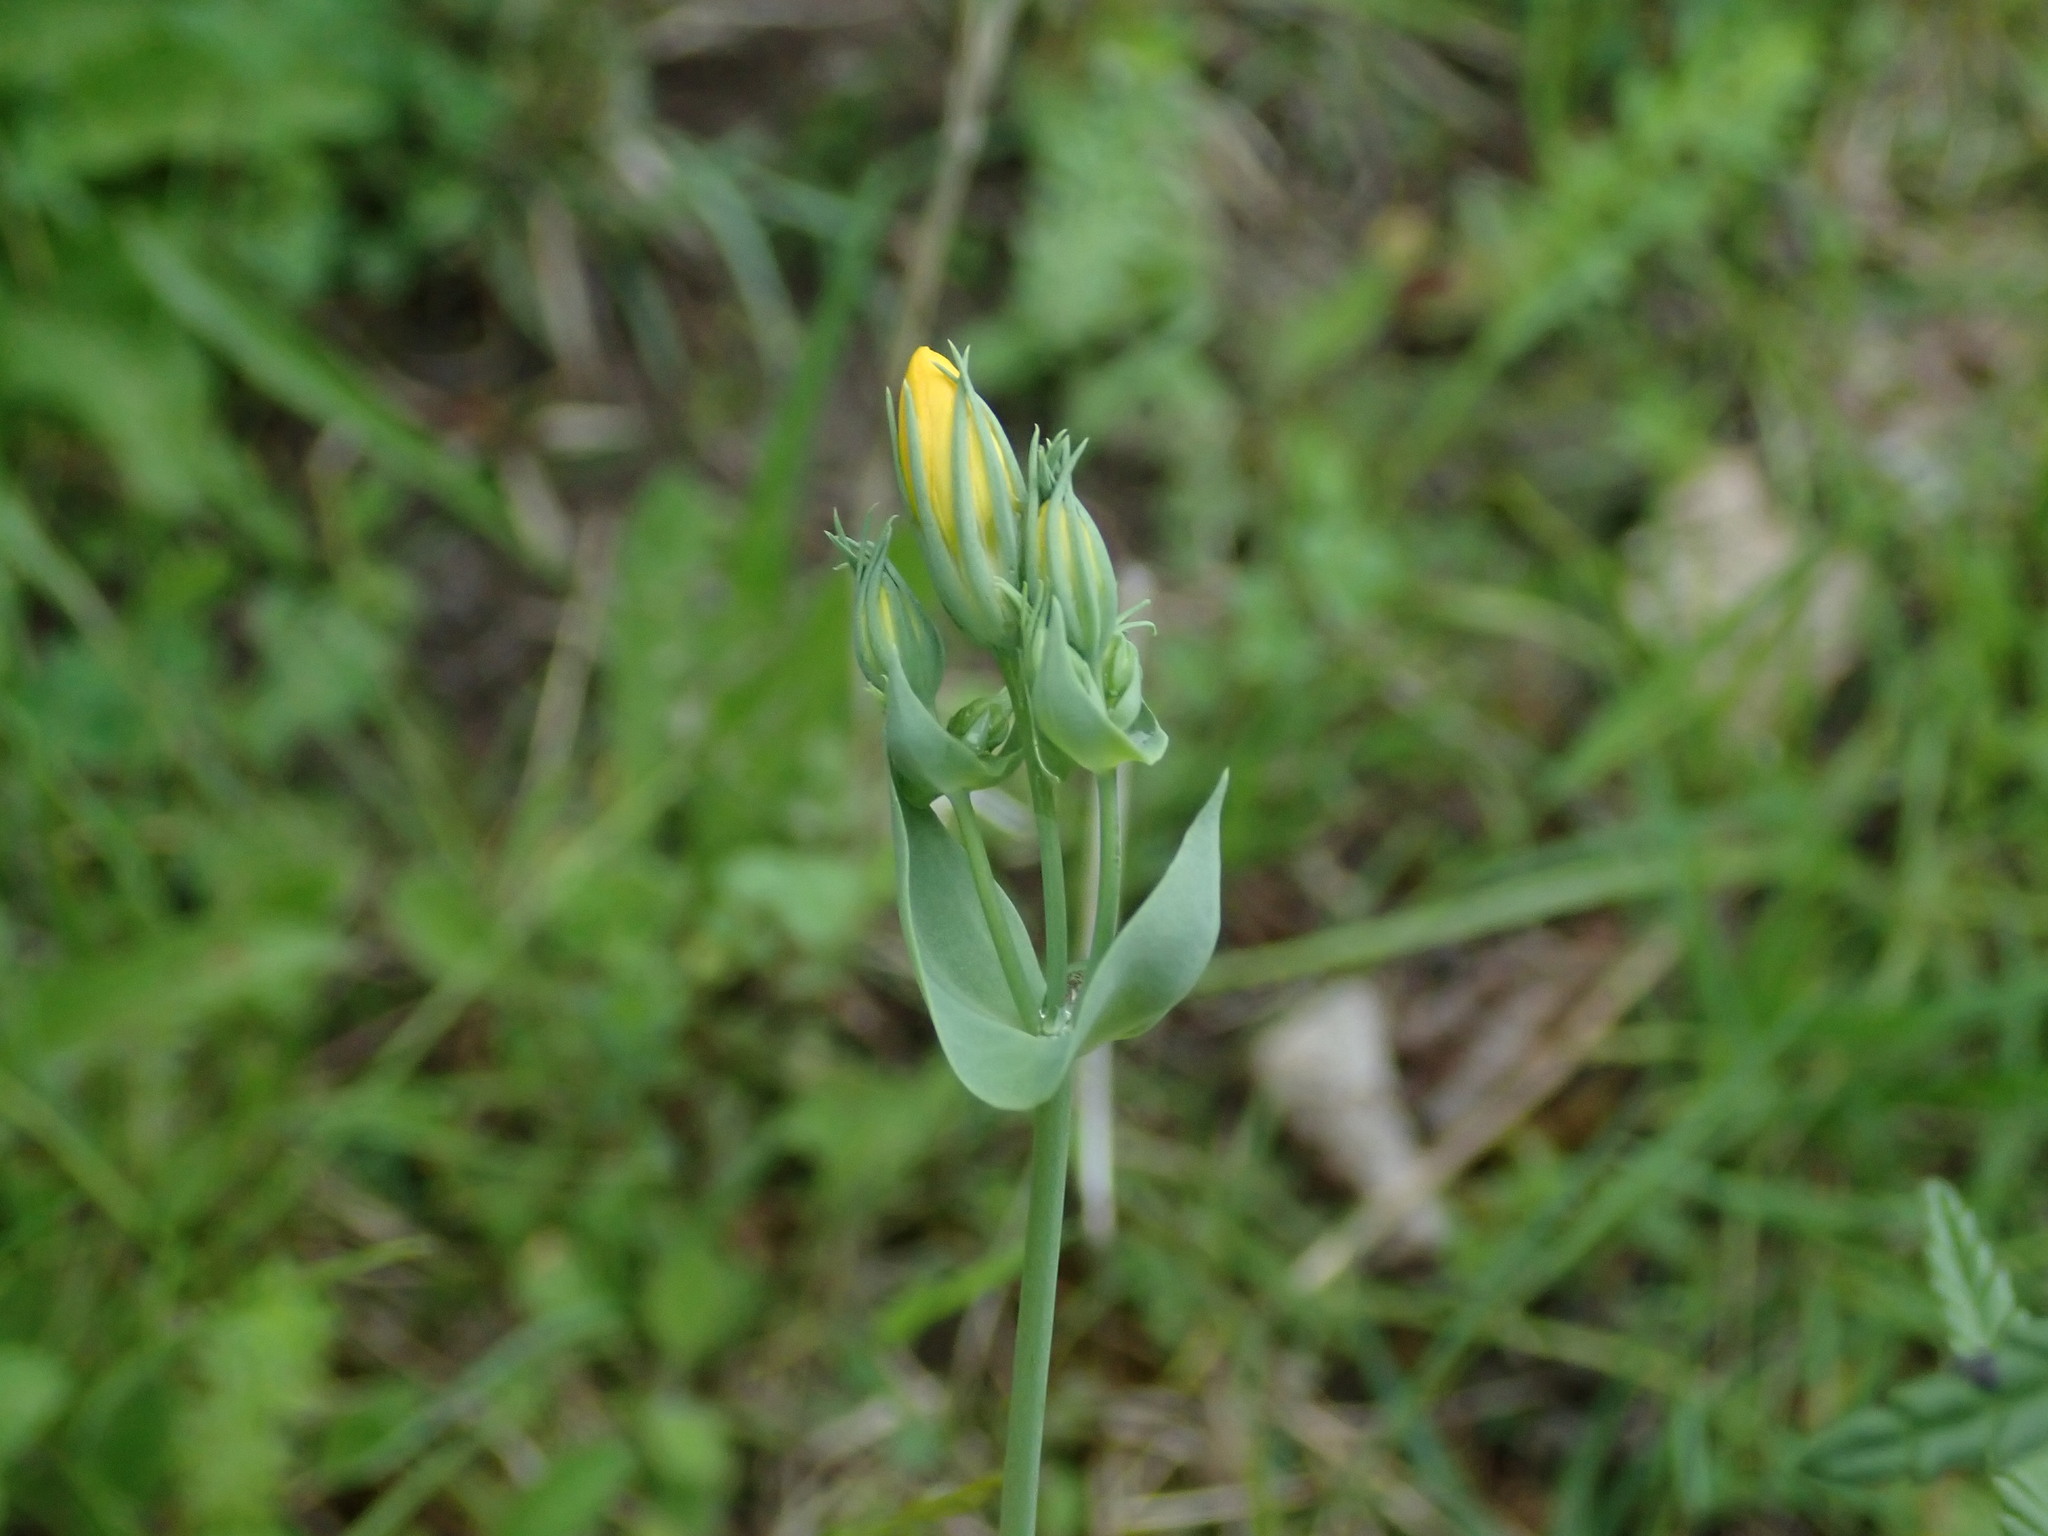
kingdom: Plantae
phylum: Tracheophyta
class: Magnoliopsida
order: Gentianales
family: Gentianaceae
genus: Blackstonia
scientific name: Blackstonia perfoliata
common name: Yellow-wort
